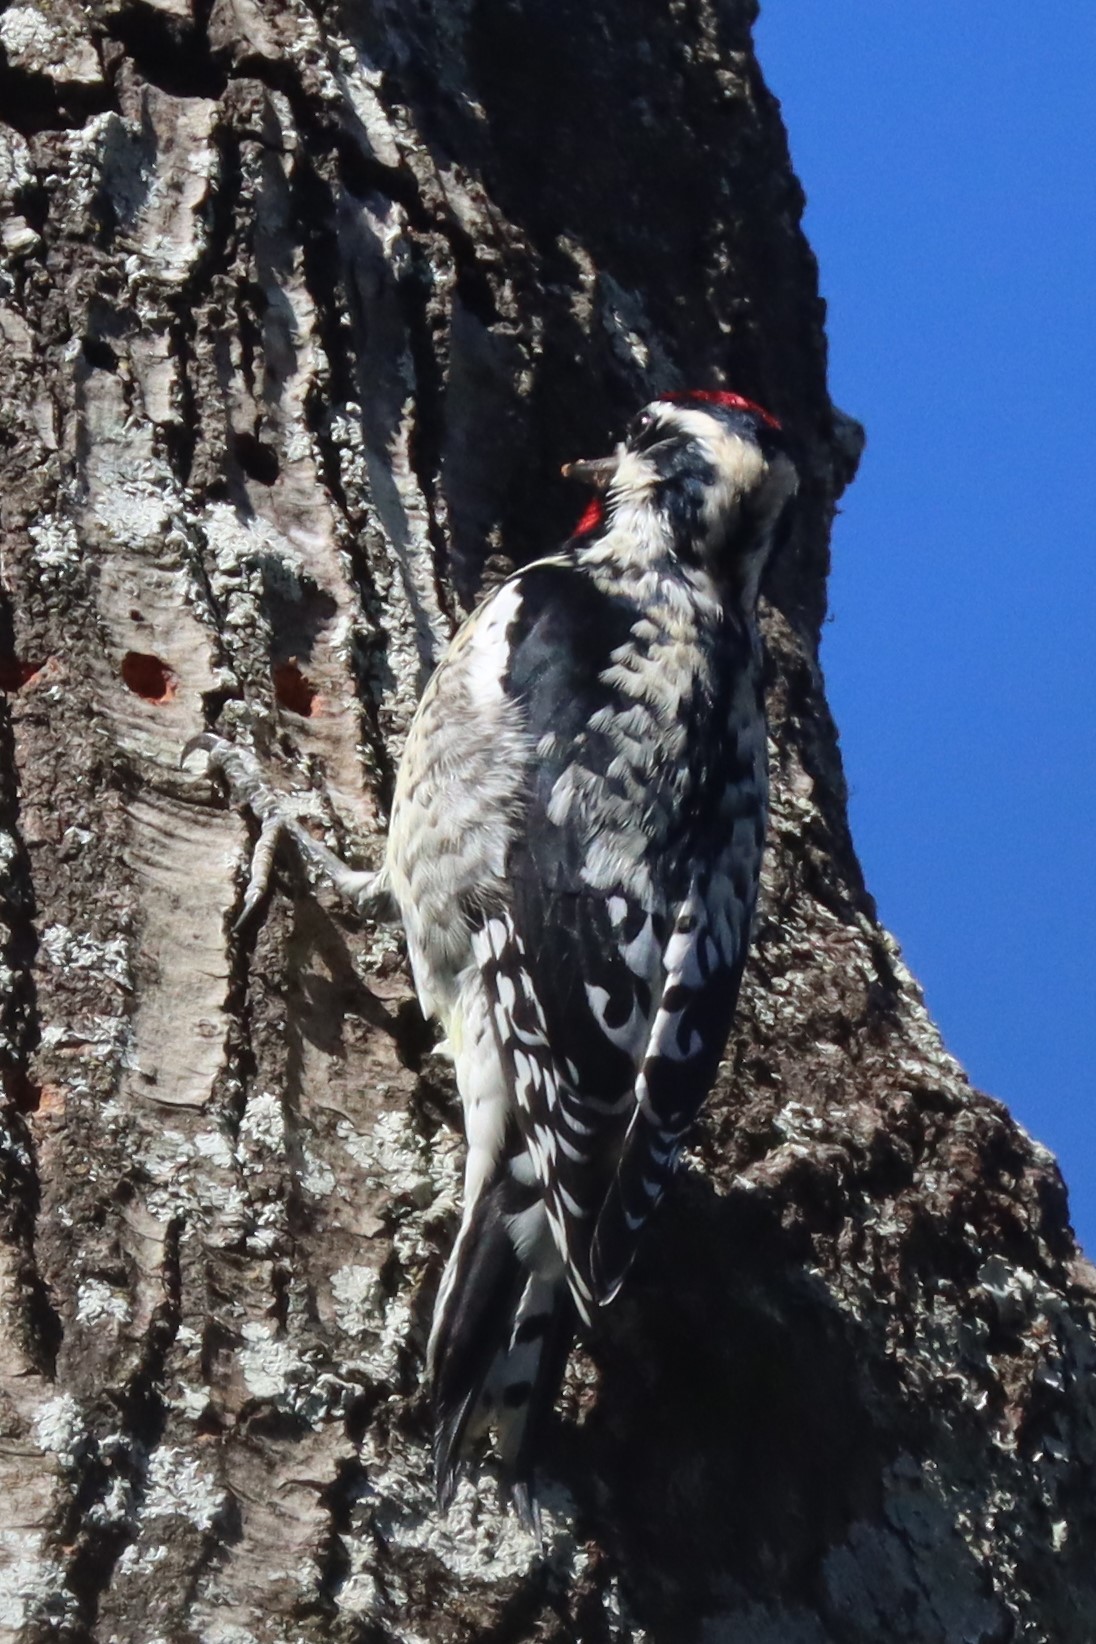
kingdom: Animalia
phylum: Chordata
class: Aves
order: Piciformes
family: Picidae
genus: Sphyrapicus
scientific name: Sphyrapicus varius
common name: Yellow-bellied sapsucker
